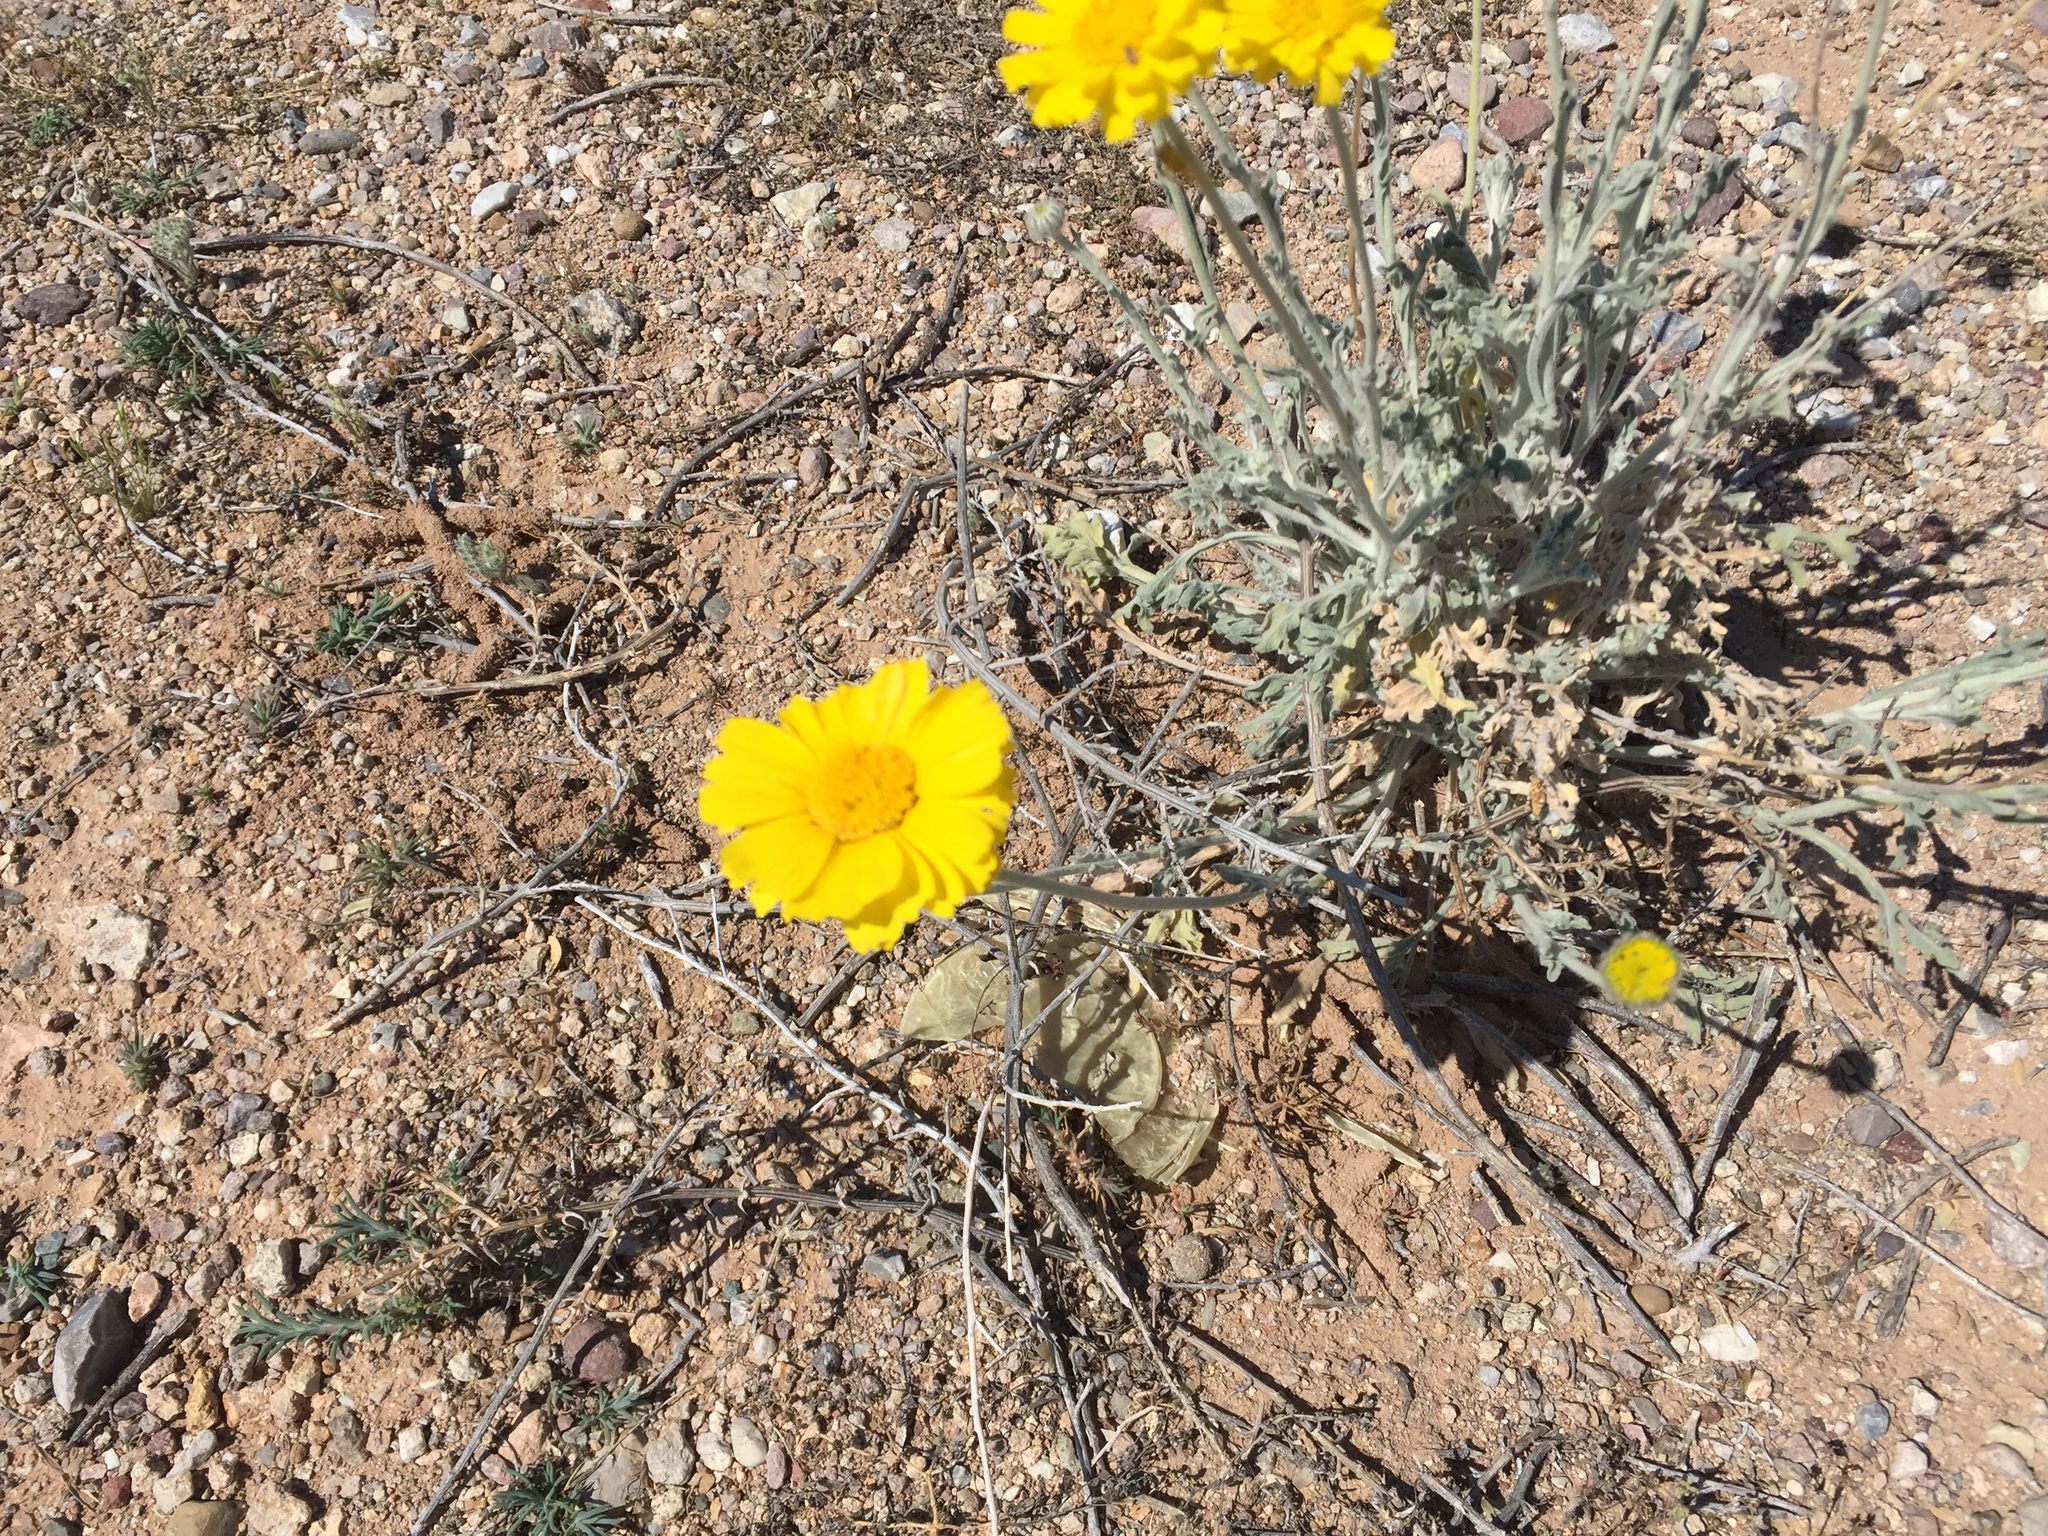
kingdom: Plantae
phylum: Tracheophyta
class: Magnoliopsida
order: Asterales
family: Asteraceae
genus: Baileya
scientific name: Baileya multiradiata
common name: Desert-marigold
